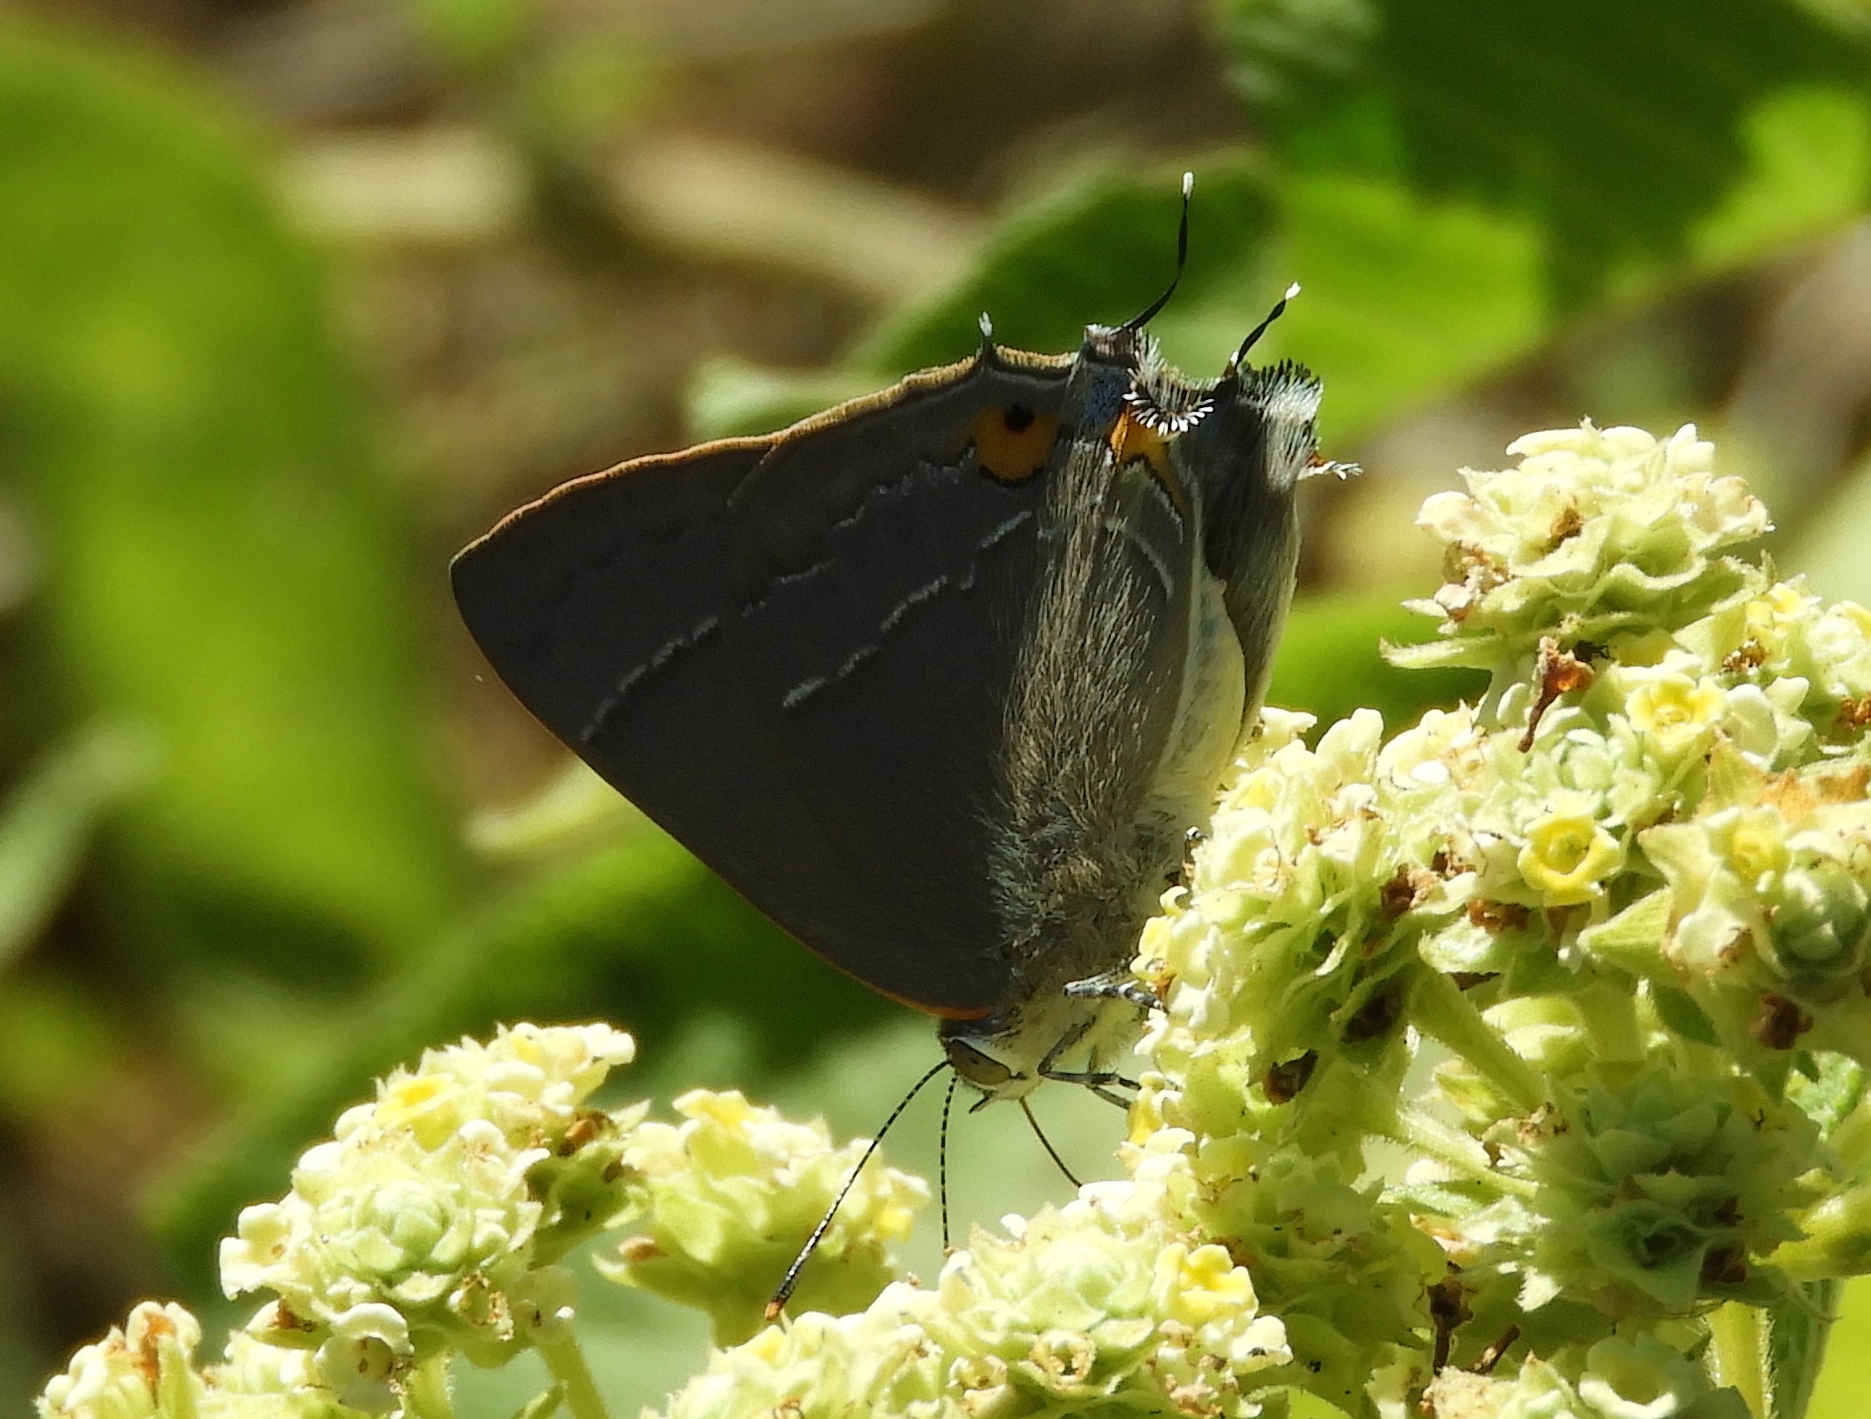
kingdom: Animalia
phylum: Arthropoda
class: Insecta
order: Lepidoptera
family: Lycaenidae
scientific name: Lycaenidae
